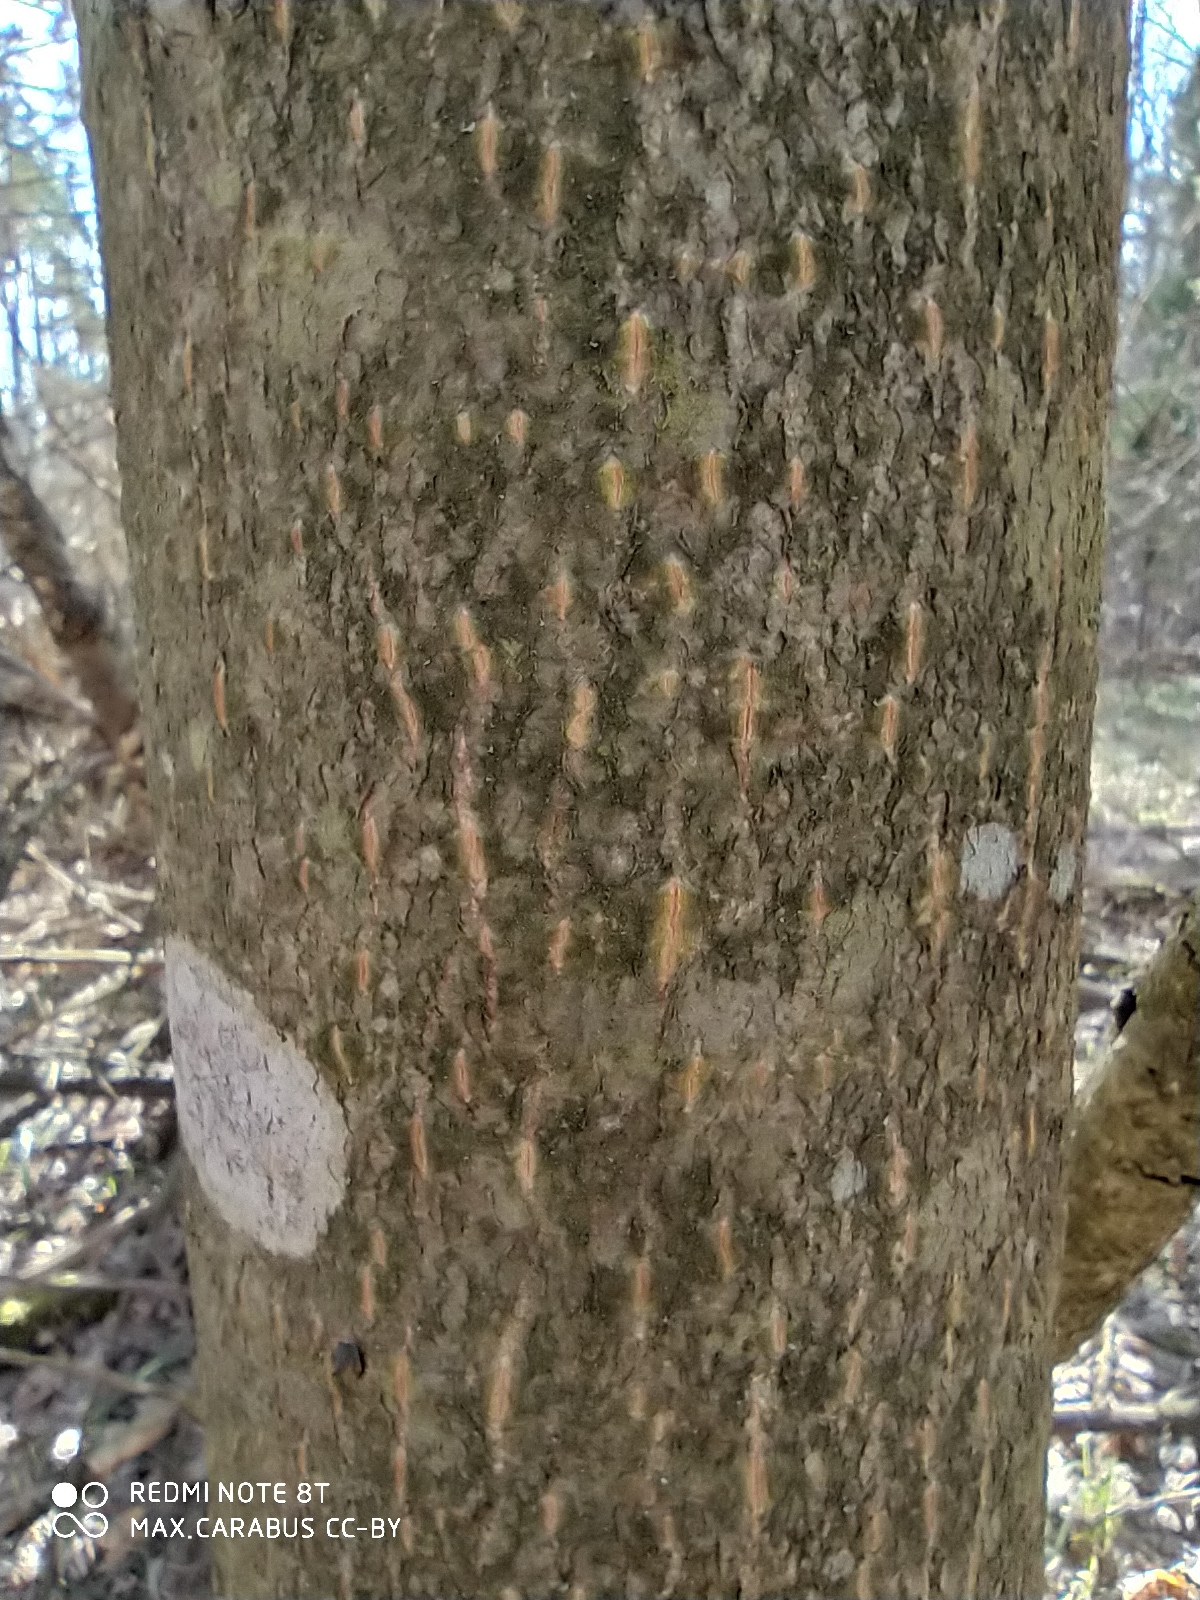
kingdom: Plantae
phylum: Tracheophyta
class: Magnoliopsida
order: Malvales
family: Malvaceae
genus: Tilia
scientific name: Tilia cordata
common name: Small-leaved lime
